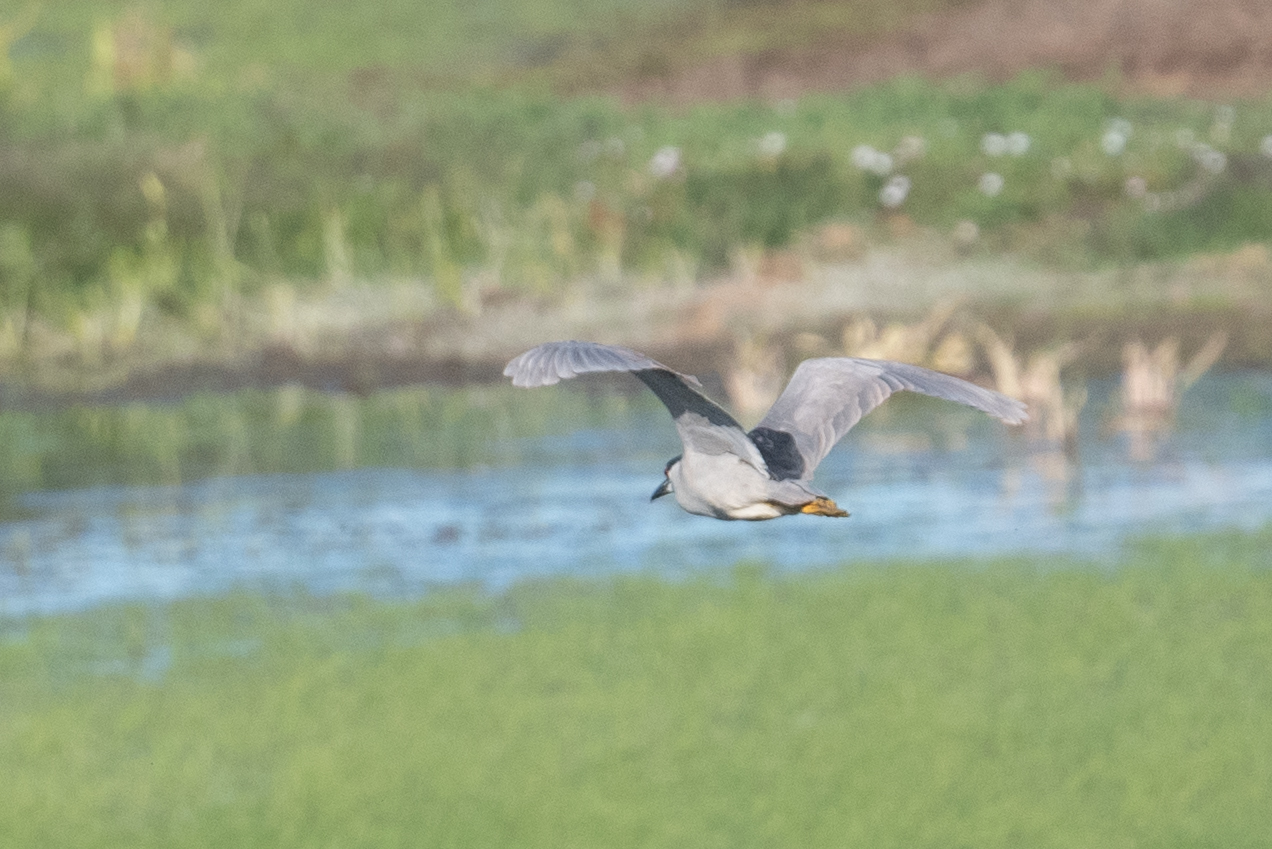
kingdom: Animalia
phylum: Chordata
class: Aves
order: Pelecaniformes
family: Ardeidae
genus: Nycticorax
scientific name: Nycticorax nycticorax
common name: Black-crowned night heron
